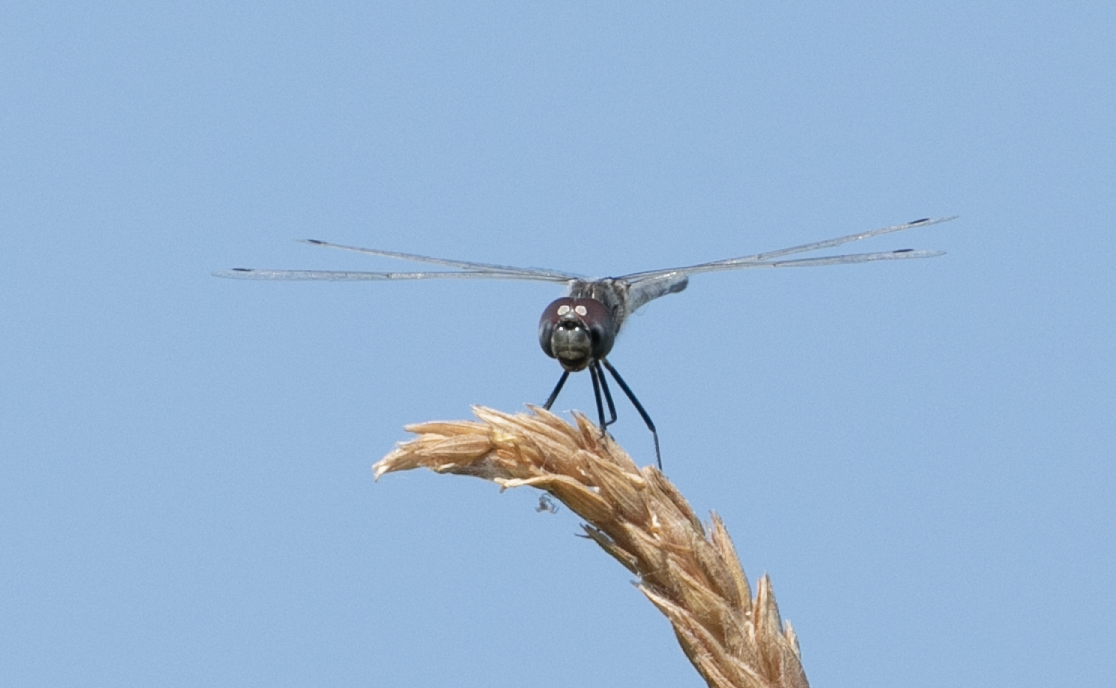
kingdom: Animalia
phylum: Arthropoda
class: Insecta
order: Odonata
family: Libellulidae
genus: Selysiothemis
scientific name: Selysiothemis nigra
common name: Black pennant
